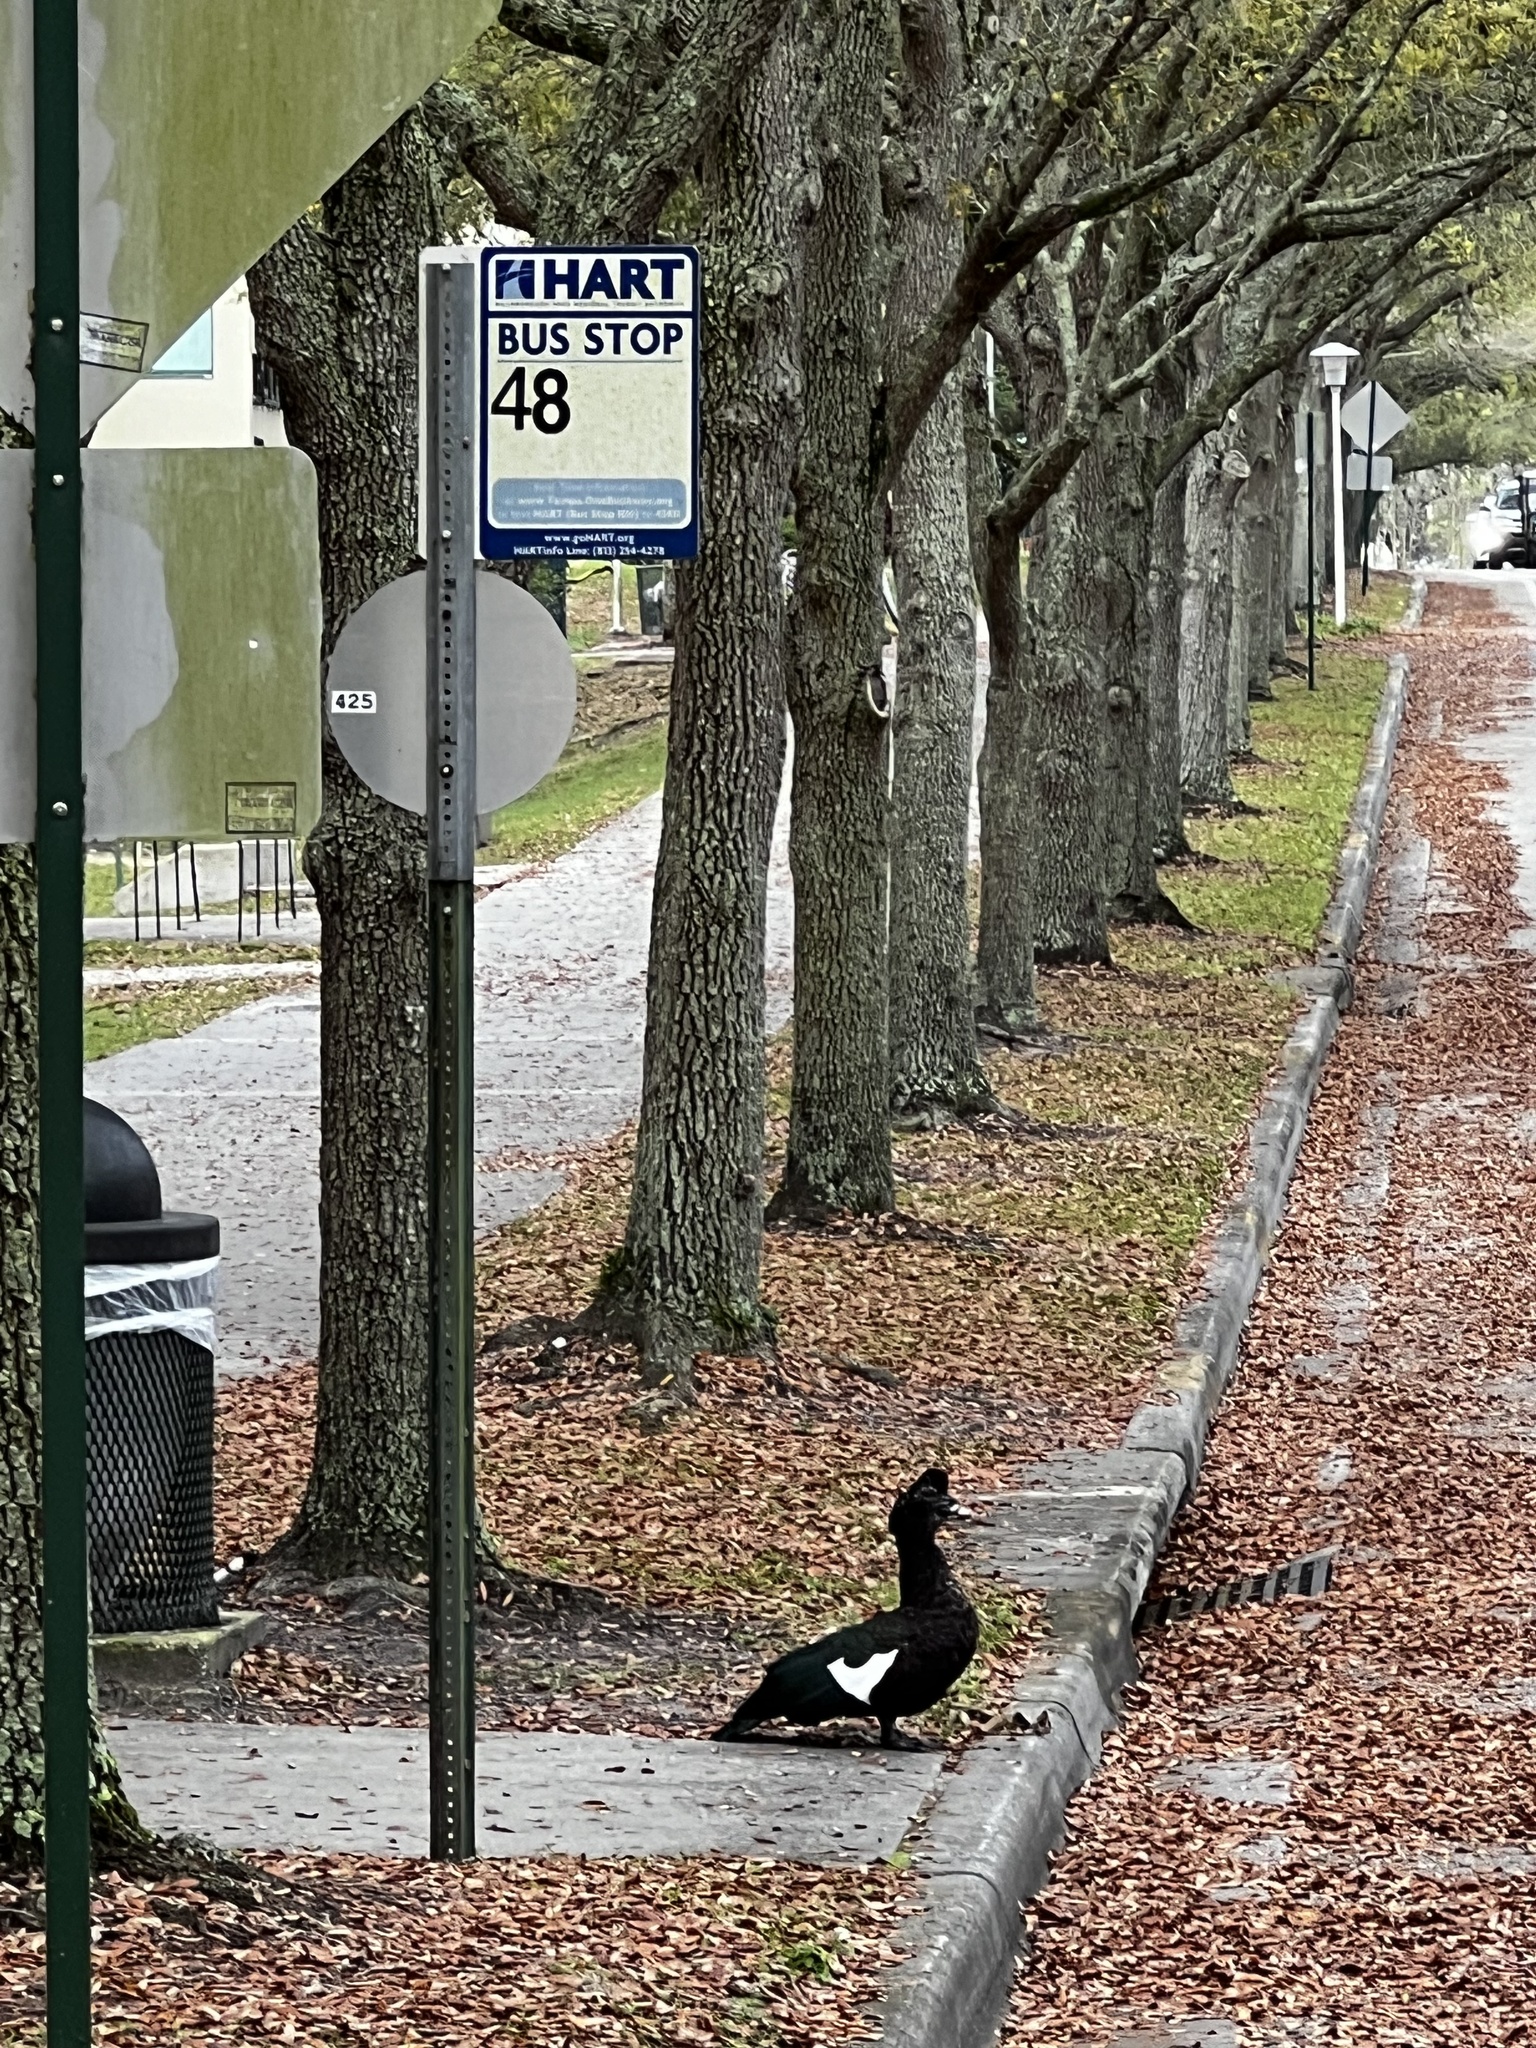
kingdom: Animalia
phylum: Chordata
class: Aves
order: Anseriformes
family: Anatidae
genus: Cairina
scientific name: Cairina moschata
